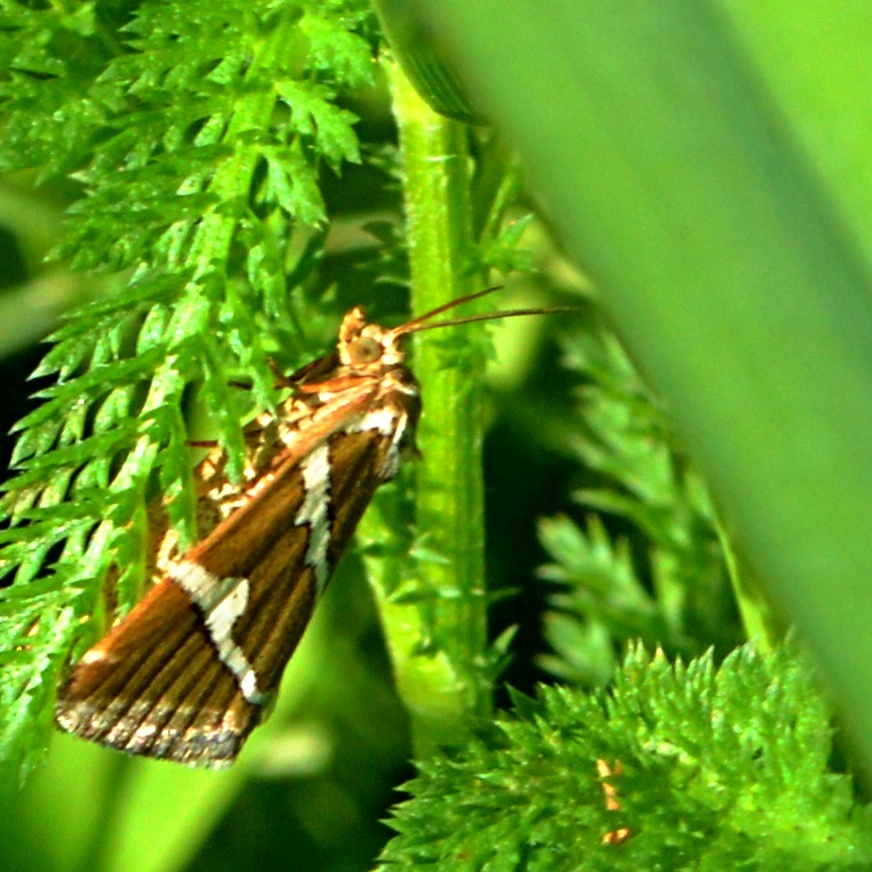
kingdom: Animalia
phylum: Arthropoda
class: Insecta
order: Lepidoptera
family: Noctuidae
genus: Deltote
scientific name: Deltote bankiana
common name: Silver barred
